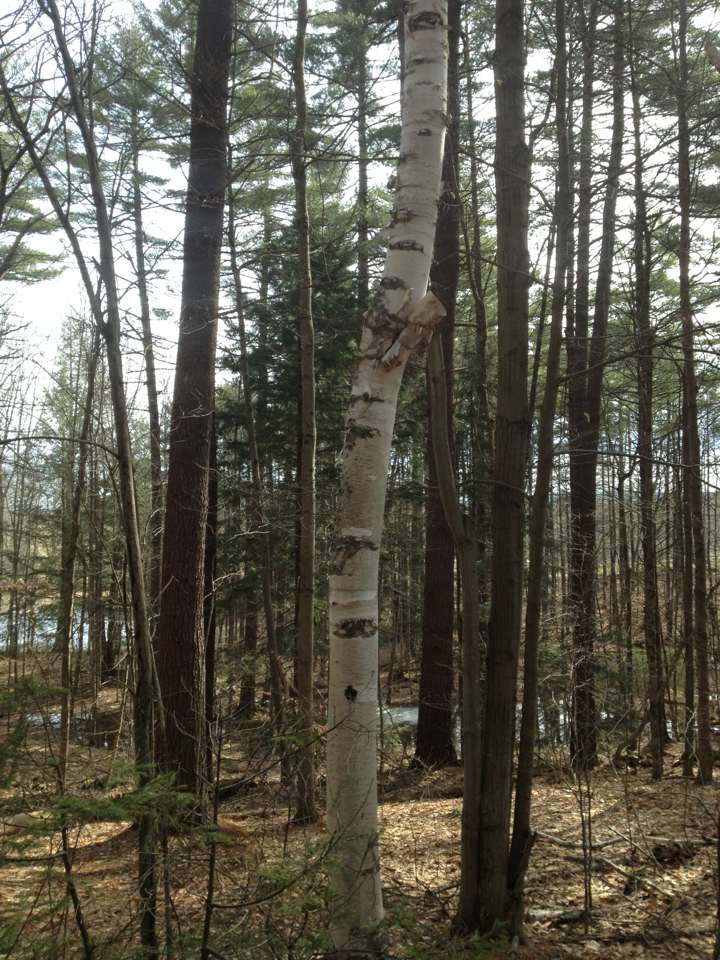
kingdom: Plantae
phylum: Tracheophyta
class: Magnoliopsida
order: Fagales
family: Betulaceae
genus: Betula
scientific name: Betula papyrifera
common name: Paper birch
